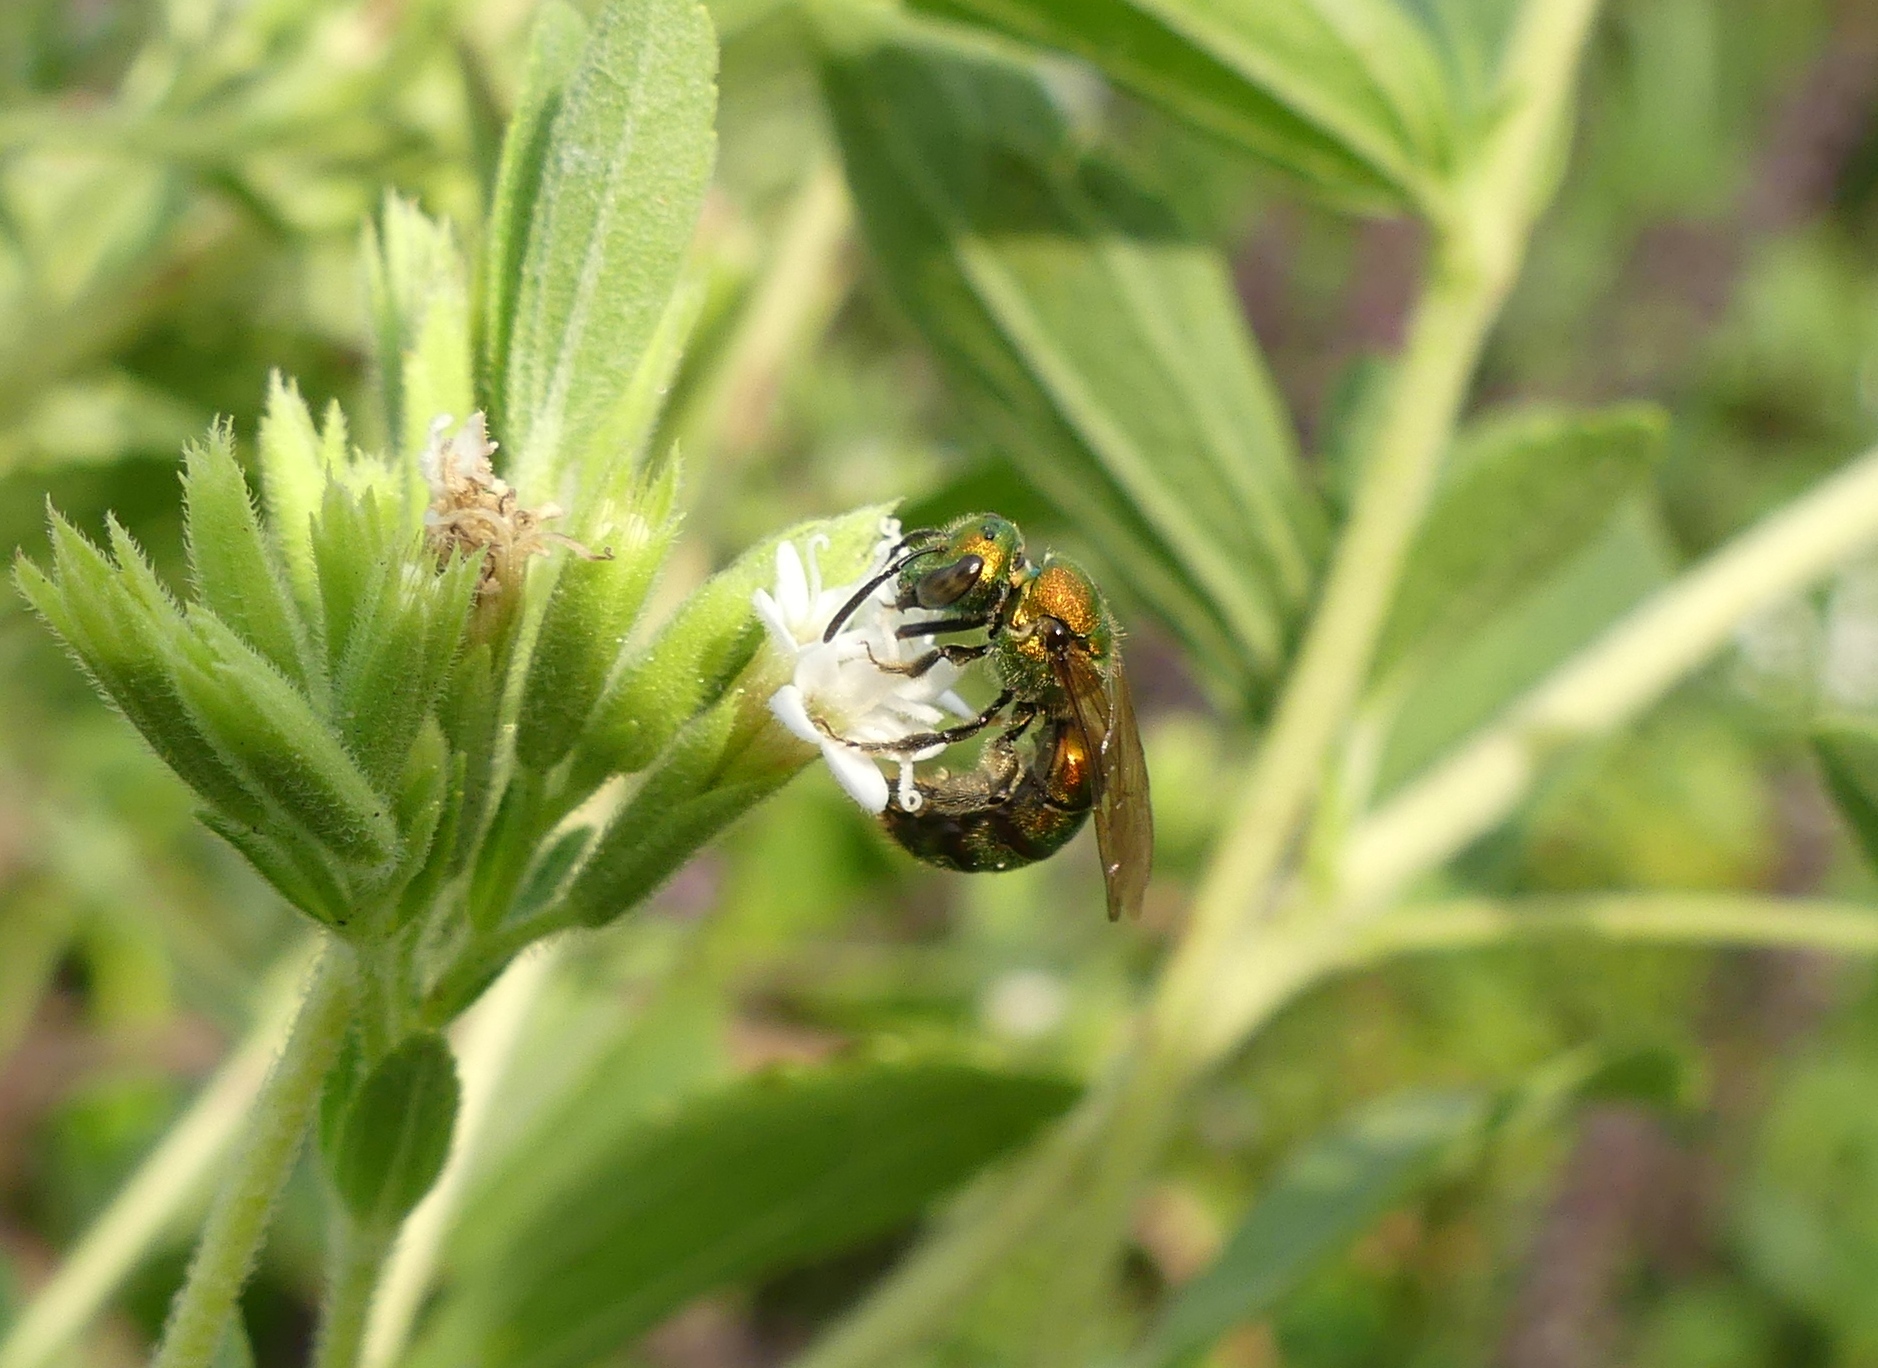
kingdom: Animalia
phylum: Arthropoda
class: Insecta
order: Hymenoptera
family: Halictidae
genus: Augochlora
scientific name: Augochlora pura
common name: Pure green sweat bee
